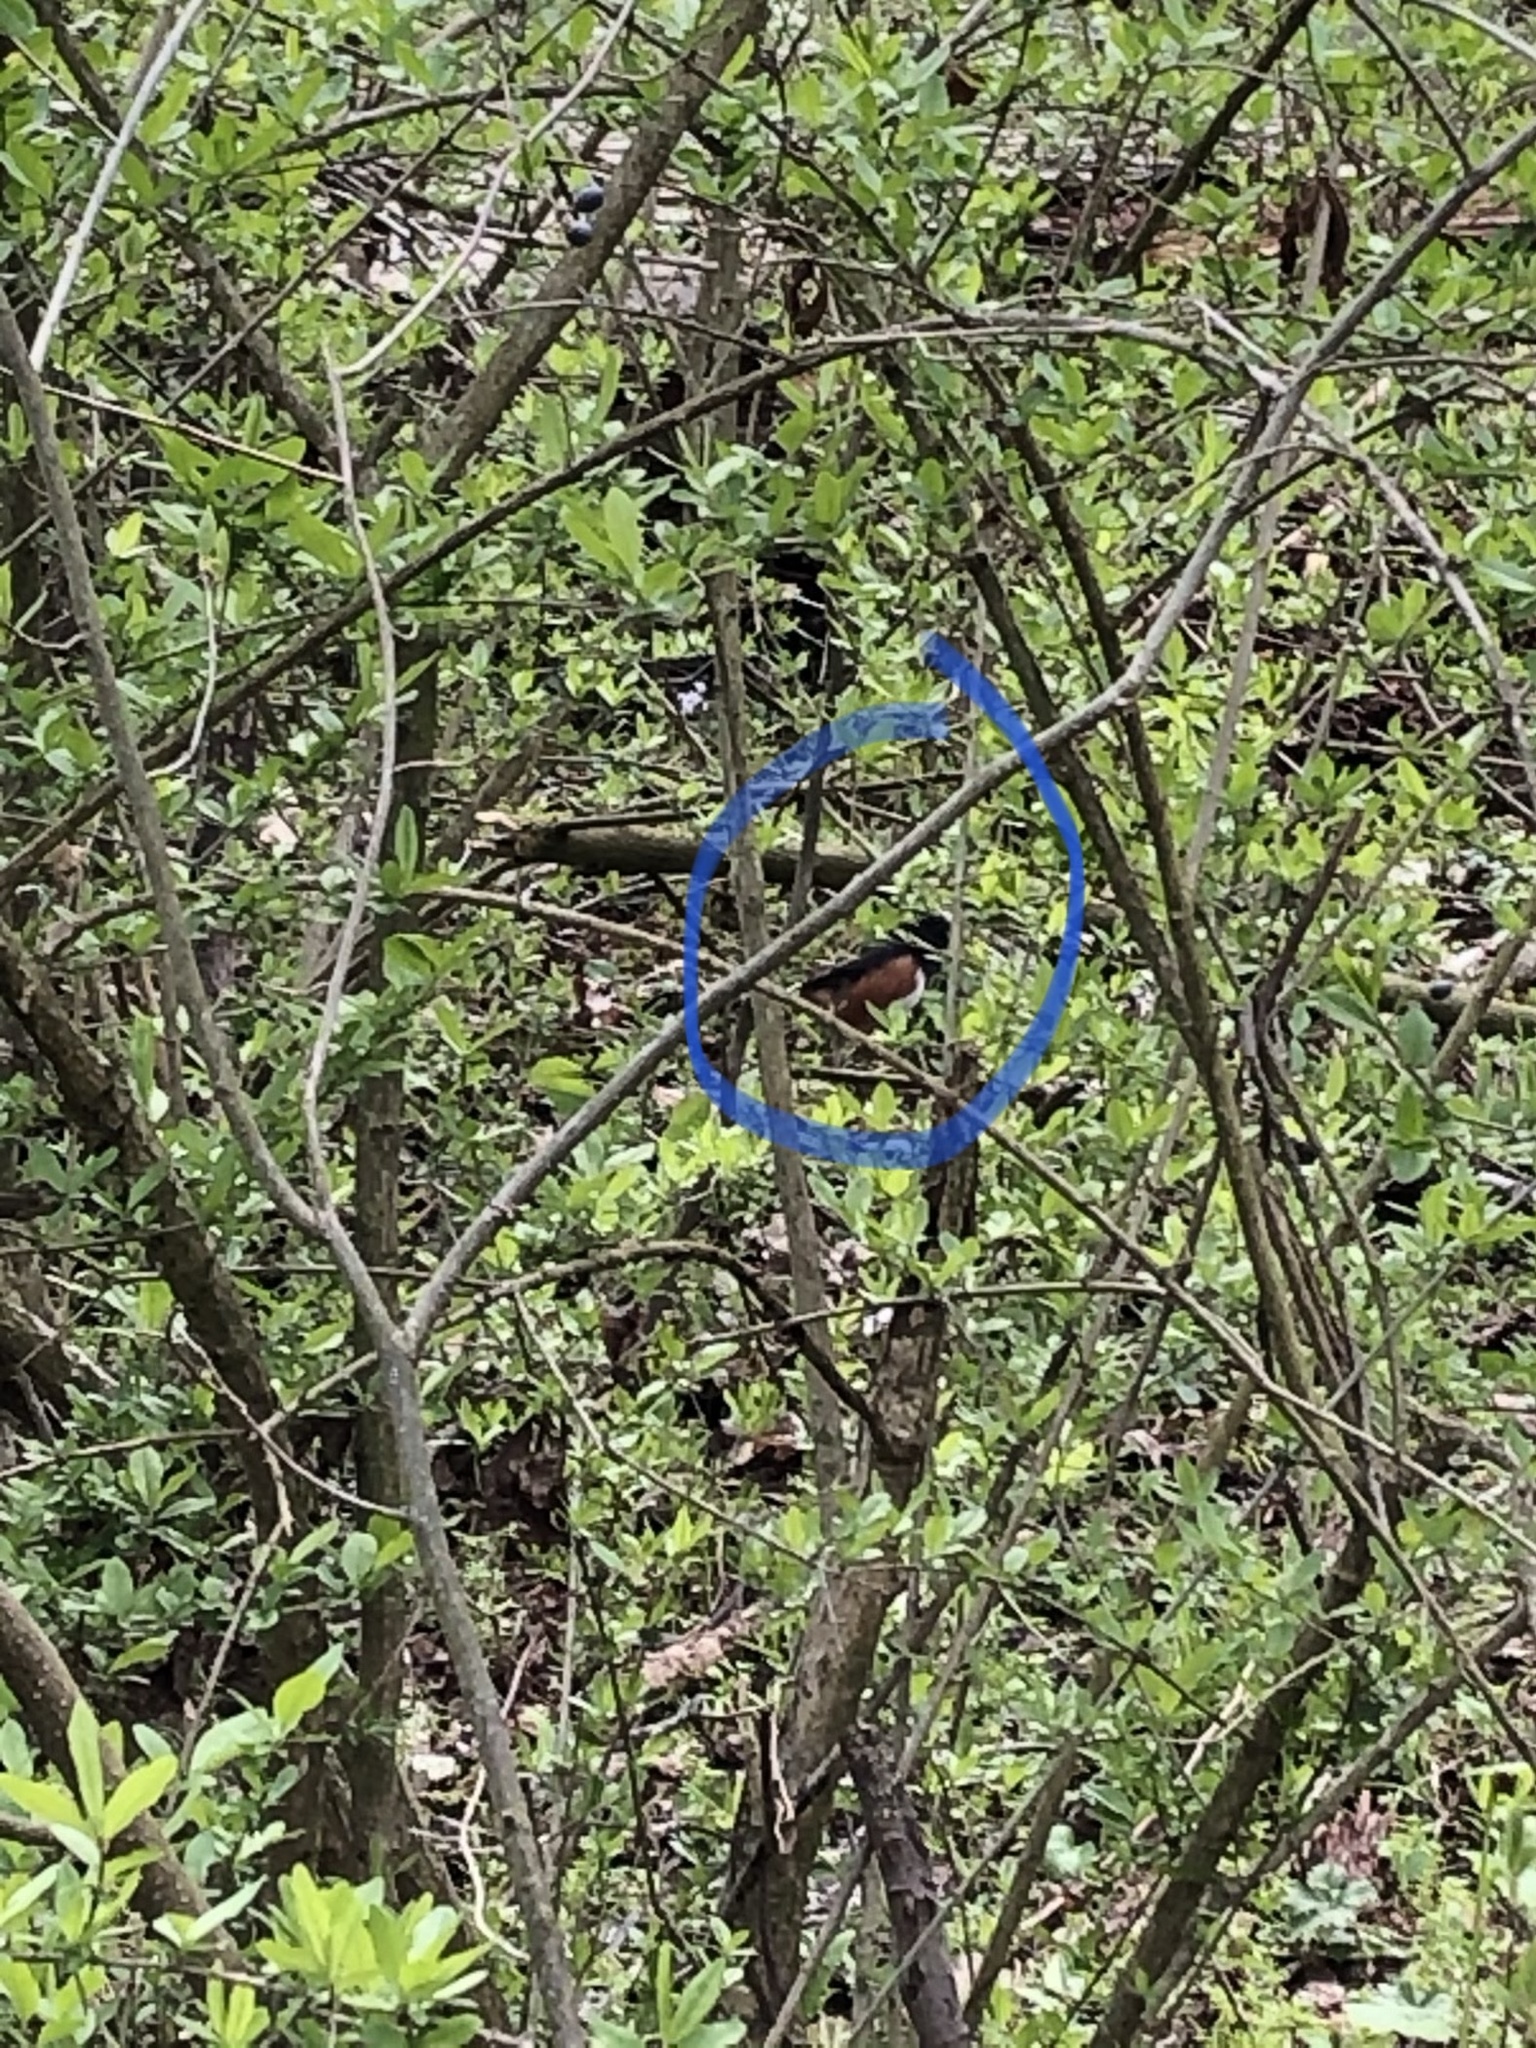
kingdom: Animalia
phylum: Chordata
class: Aves
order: Passeriformes
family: Passerellidae
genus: Pipilo
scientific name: Pipilo erythrophthalmus
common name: Eastern towhee
